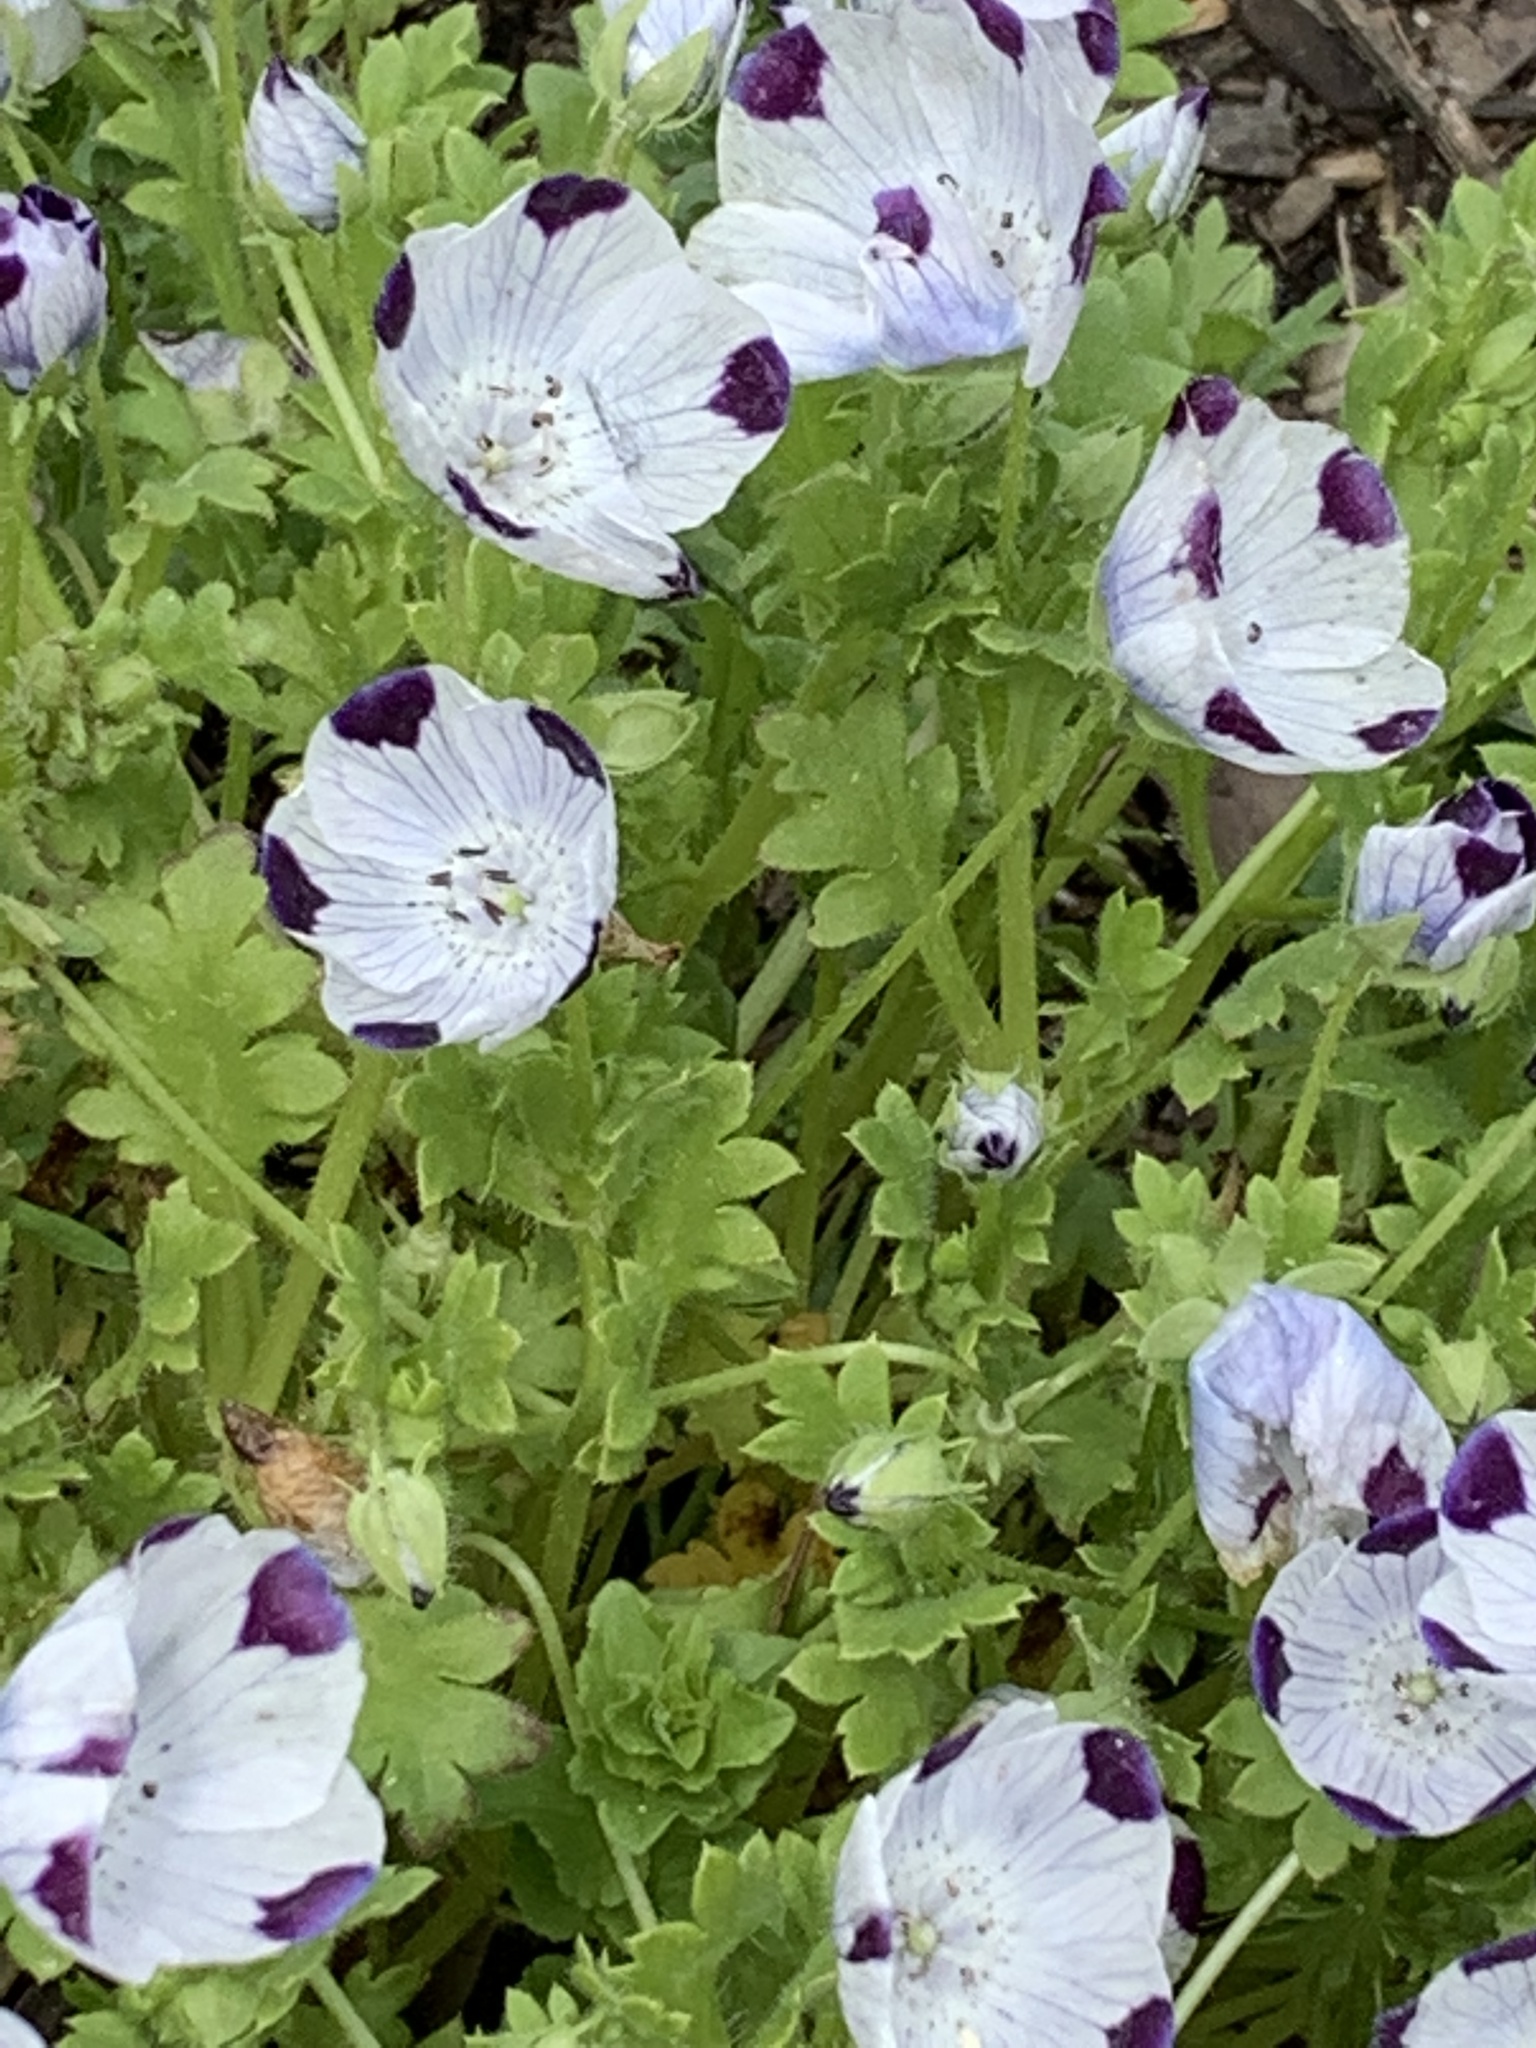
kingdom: Plantae
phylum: Tracheophyta
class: Magnoliopsida
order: Boraginales
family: Hydrophyllaceae
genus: Nemophila
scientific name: Nemophila maculata
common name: Fivespot
